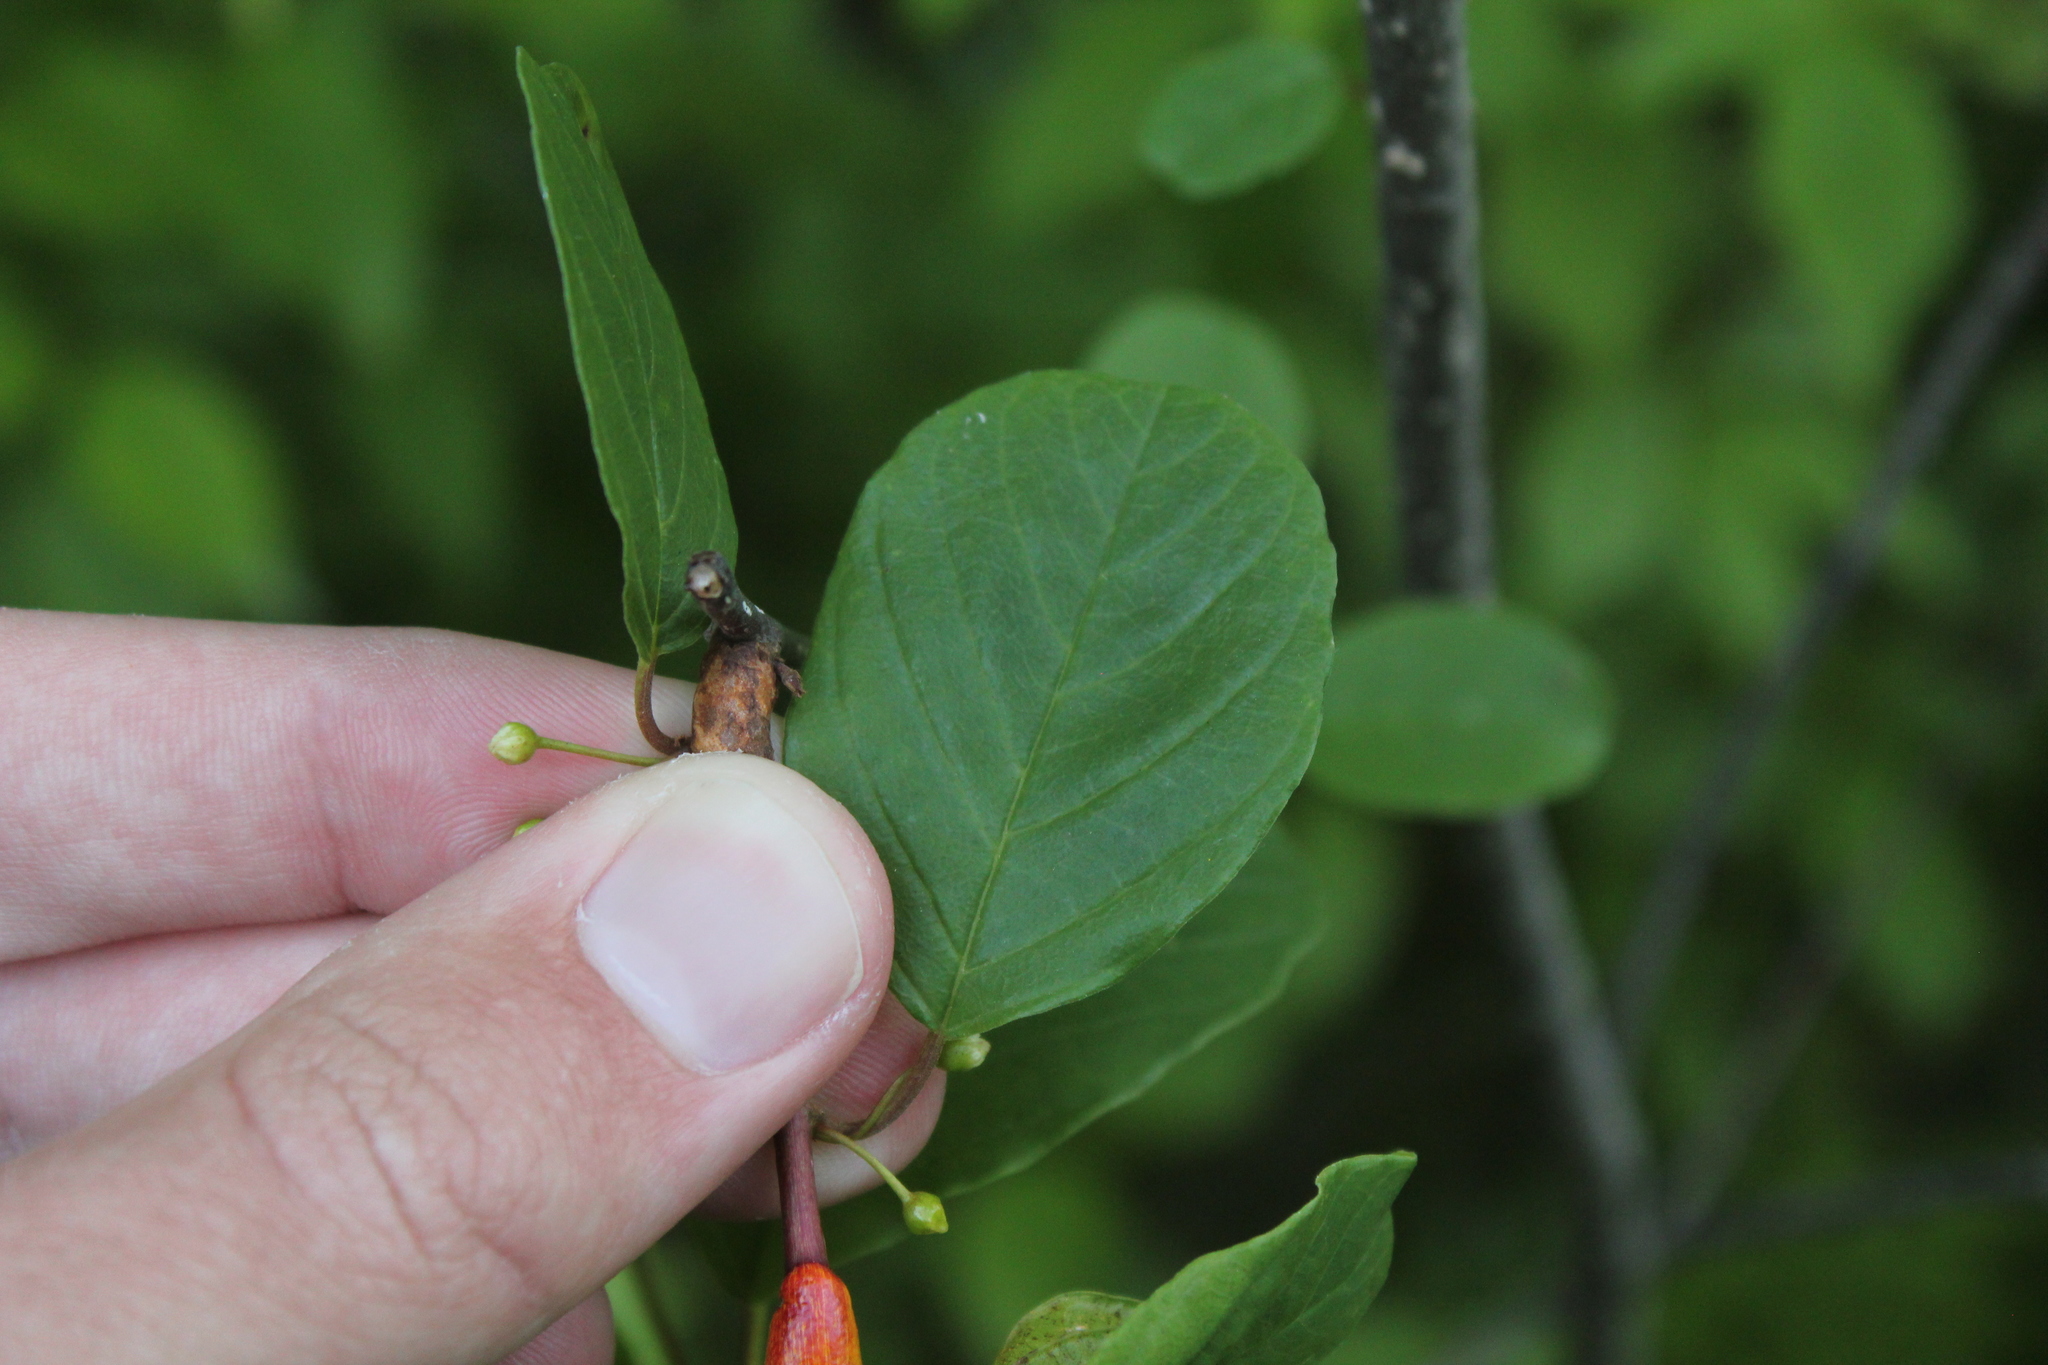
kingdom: Plantae
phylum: Tracheophyta
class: Magnoliopsida
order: Rosales
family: Rhamnaceae
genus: Frangula
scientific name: Frangula alnus
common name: Alder buckthorn
